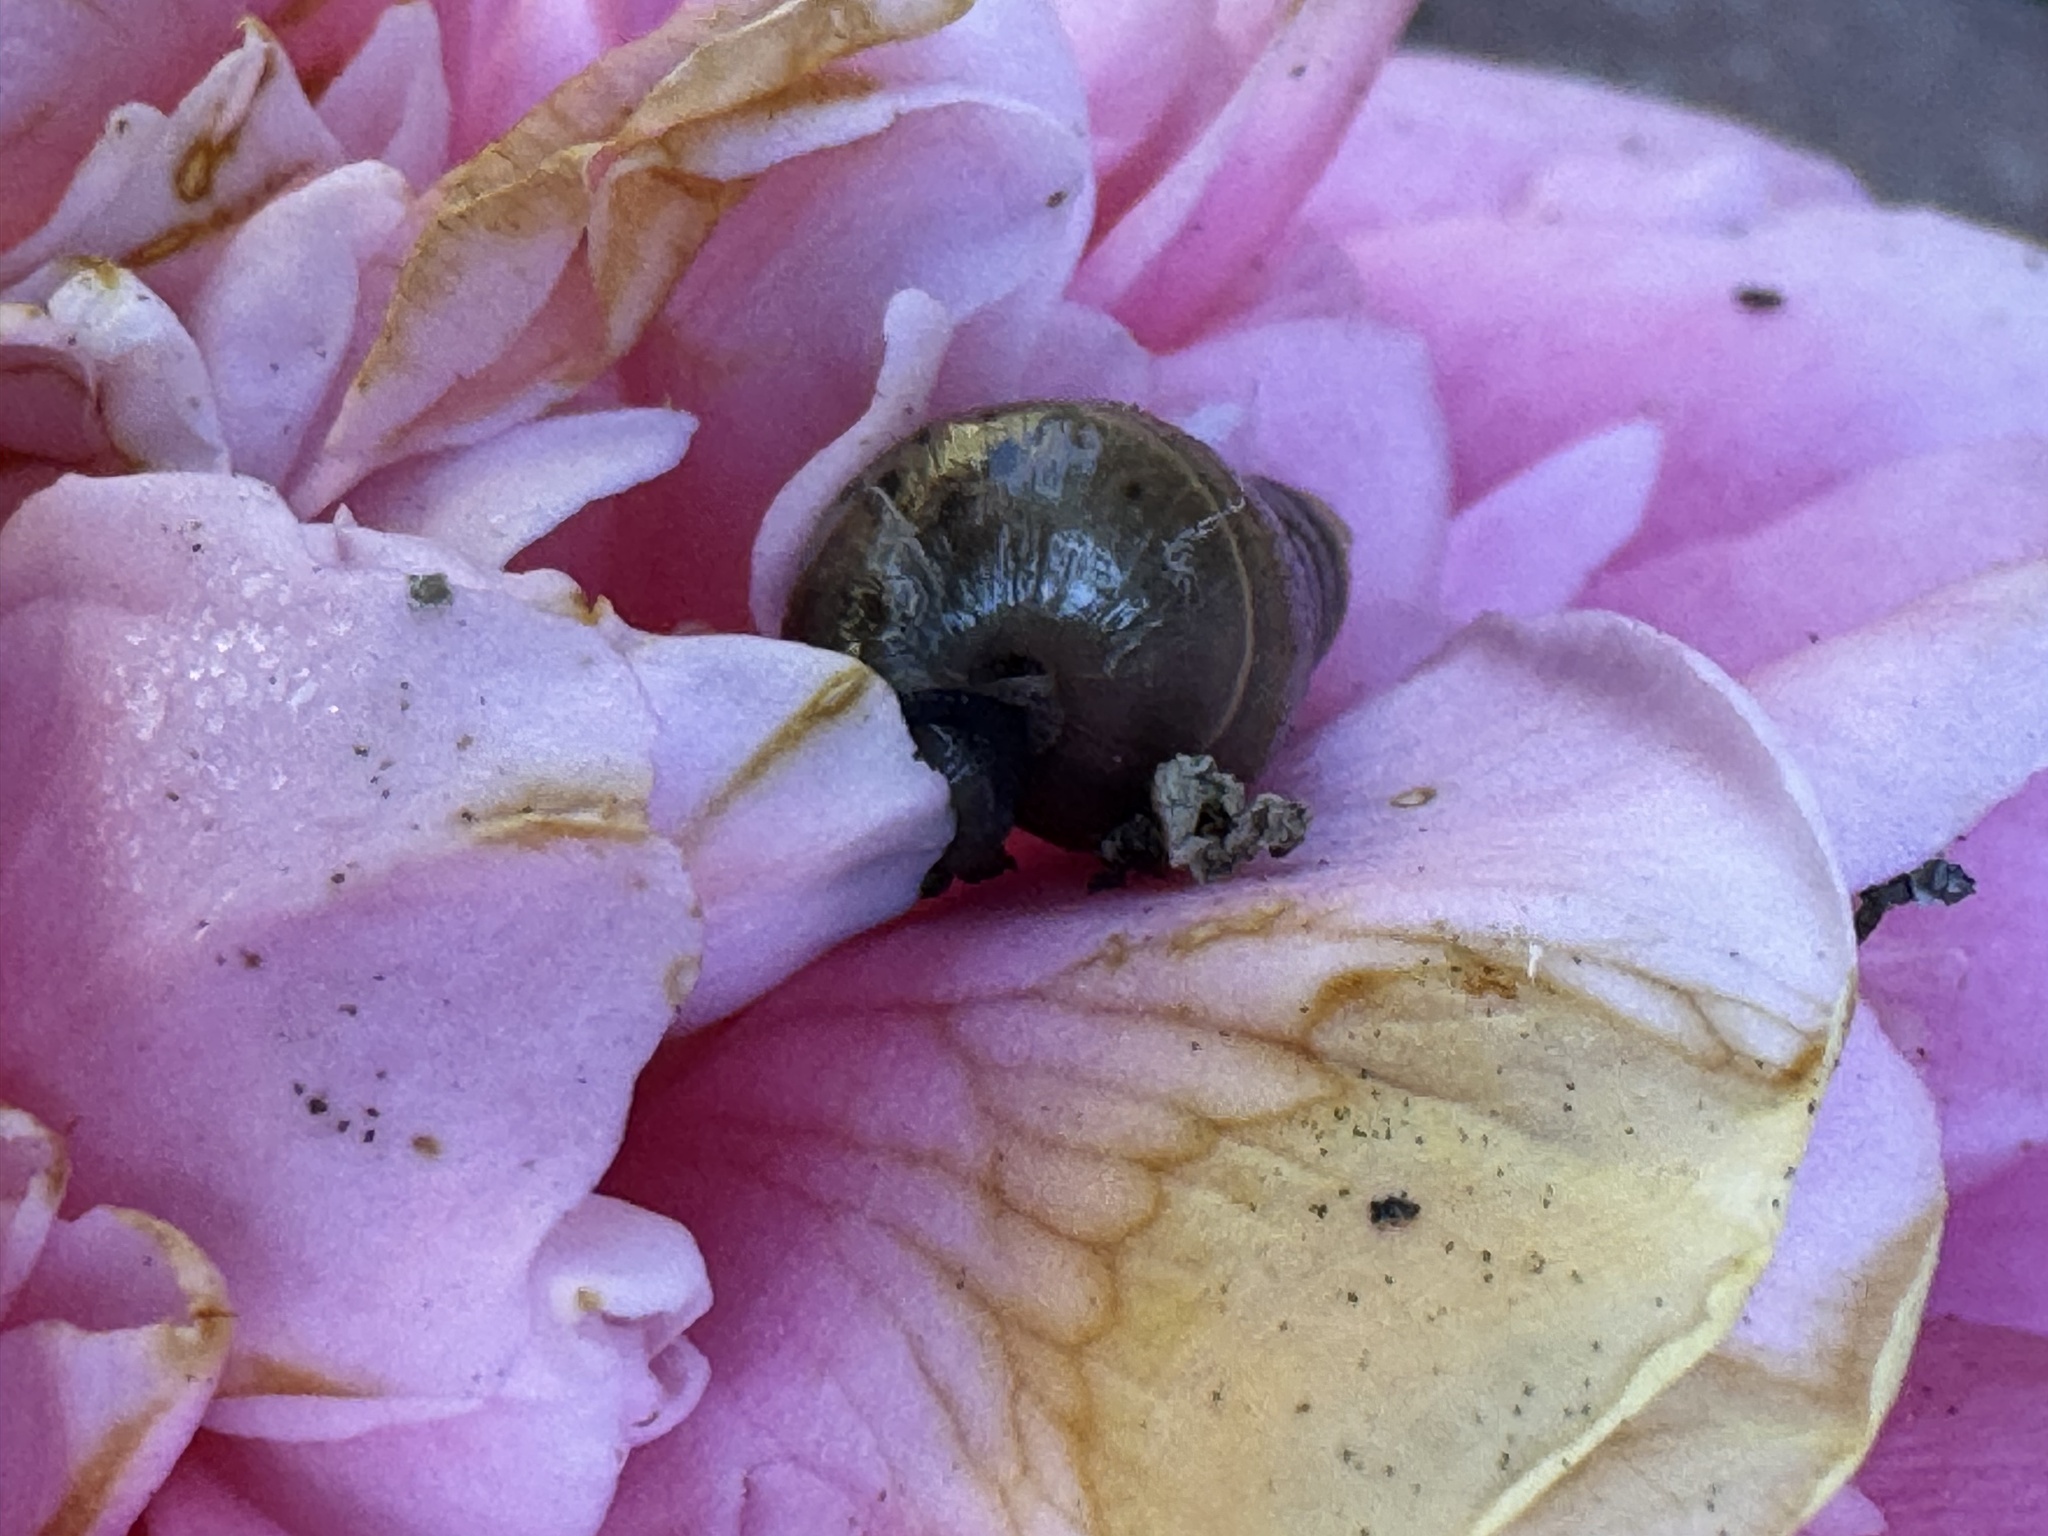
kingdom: Animalia
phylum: Mollusca
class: Gastropoda
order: Stylommatophora
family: Achatinidae
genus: Rumina
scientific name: Rumina decollata
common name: Decollate snail
